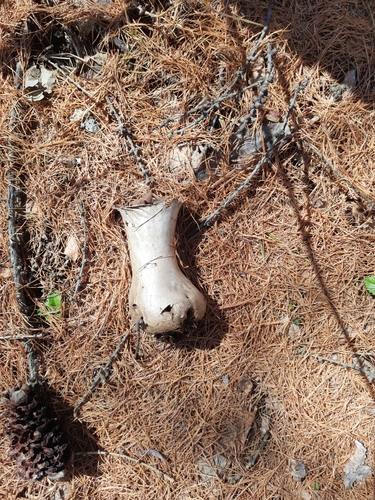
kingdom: Fungi
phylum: Basidiomycota
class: Agaricomycetes
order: Agaricales
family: Lycoperdaceae
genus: Lycoperdon
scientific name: Lycoperdon excipuliforme
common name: Pestle puffball
